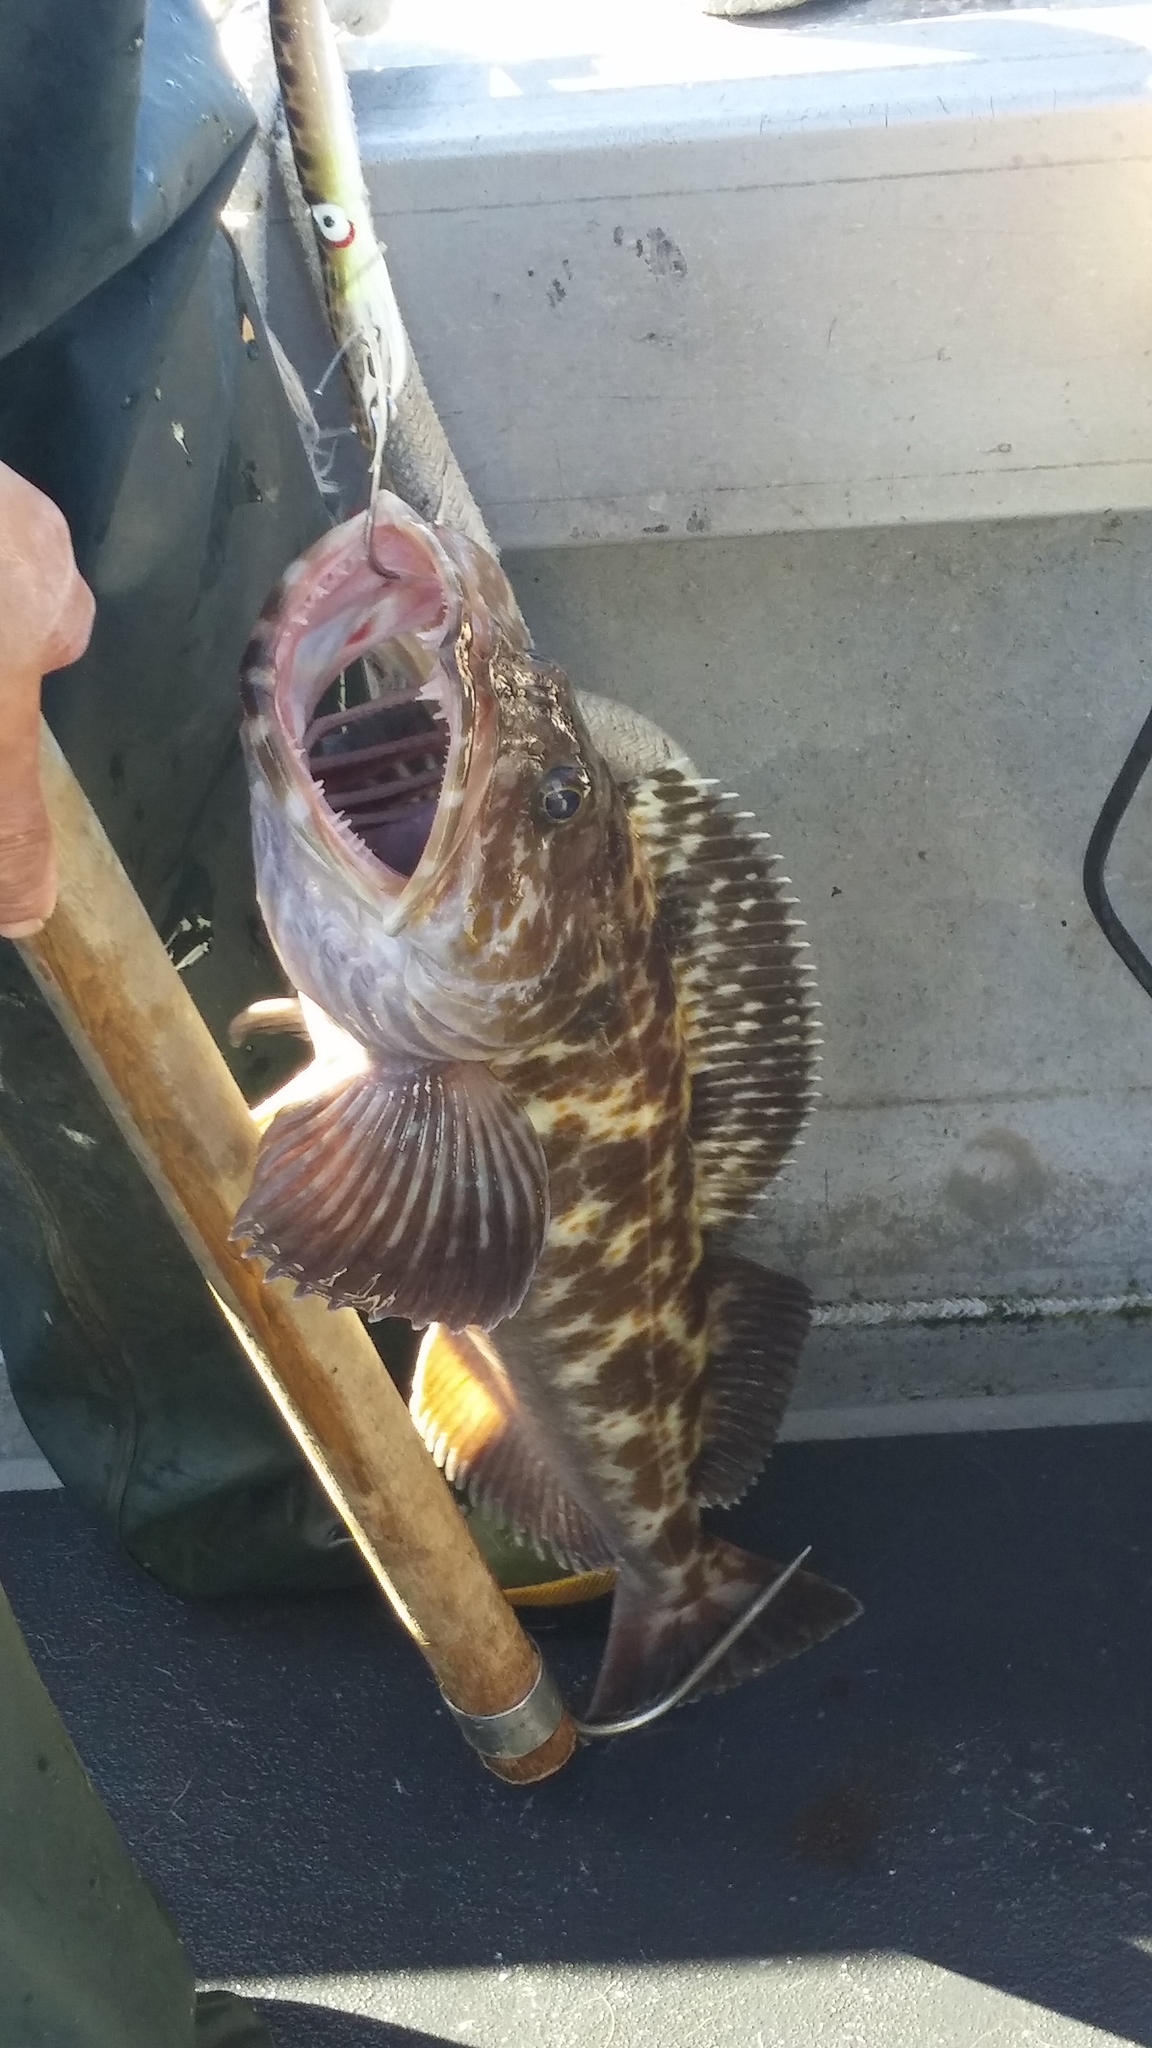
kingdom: Animalia
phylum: Chordata
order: Scorpaeniformes
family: Hexagrammidae
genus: Ophiodon
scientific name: Ophiodon elongatus
